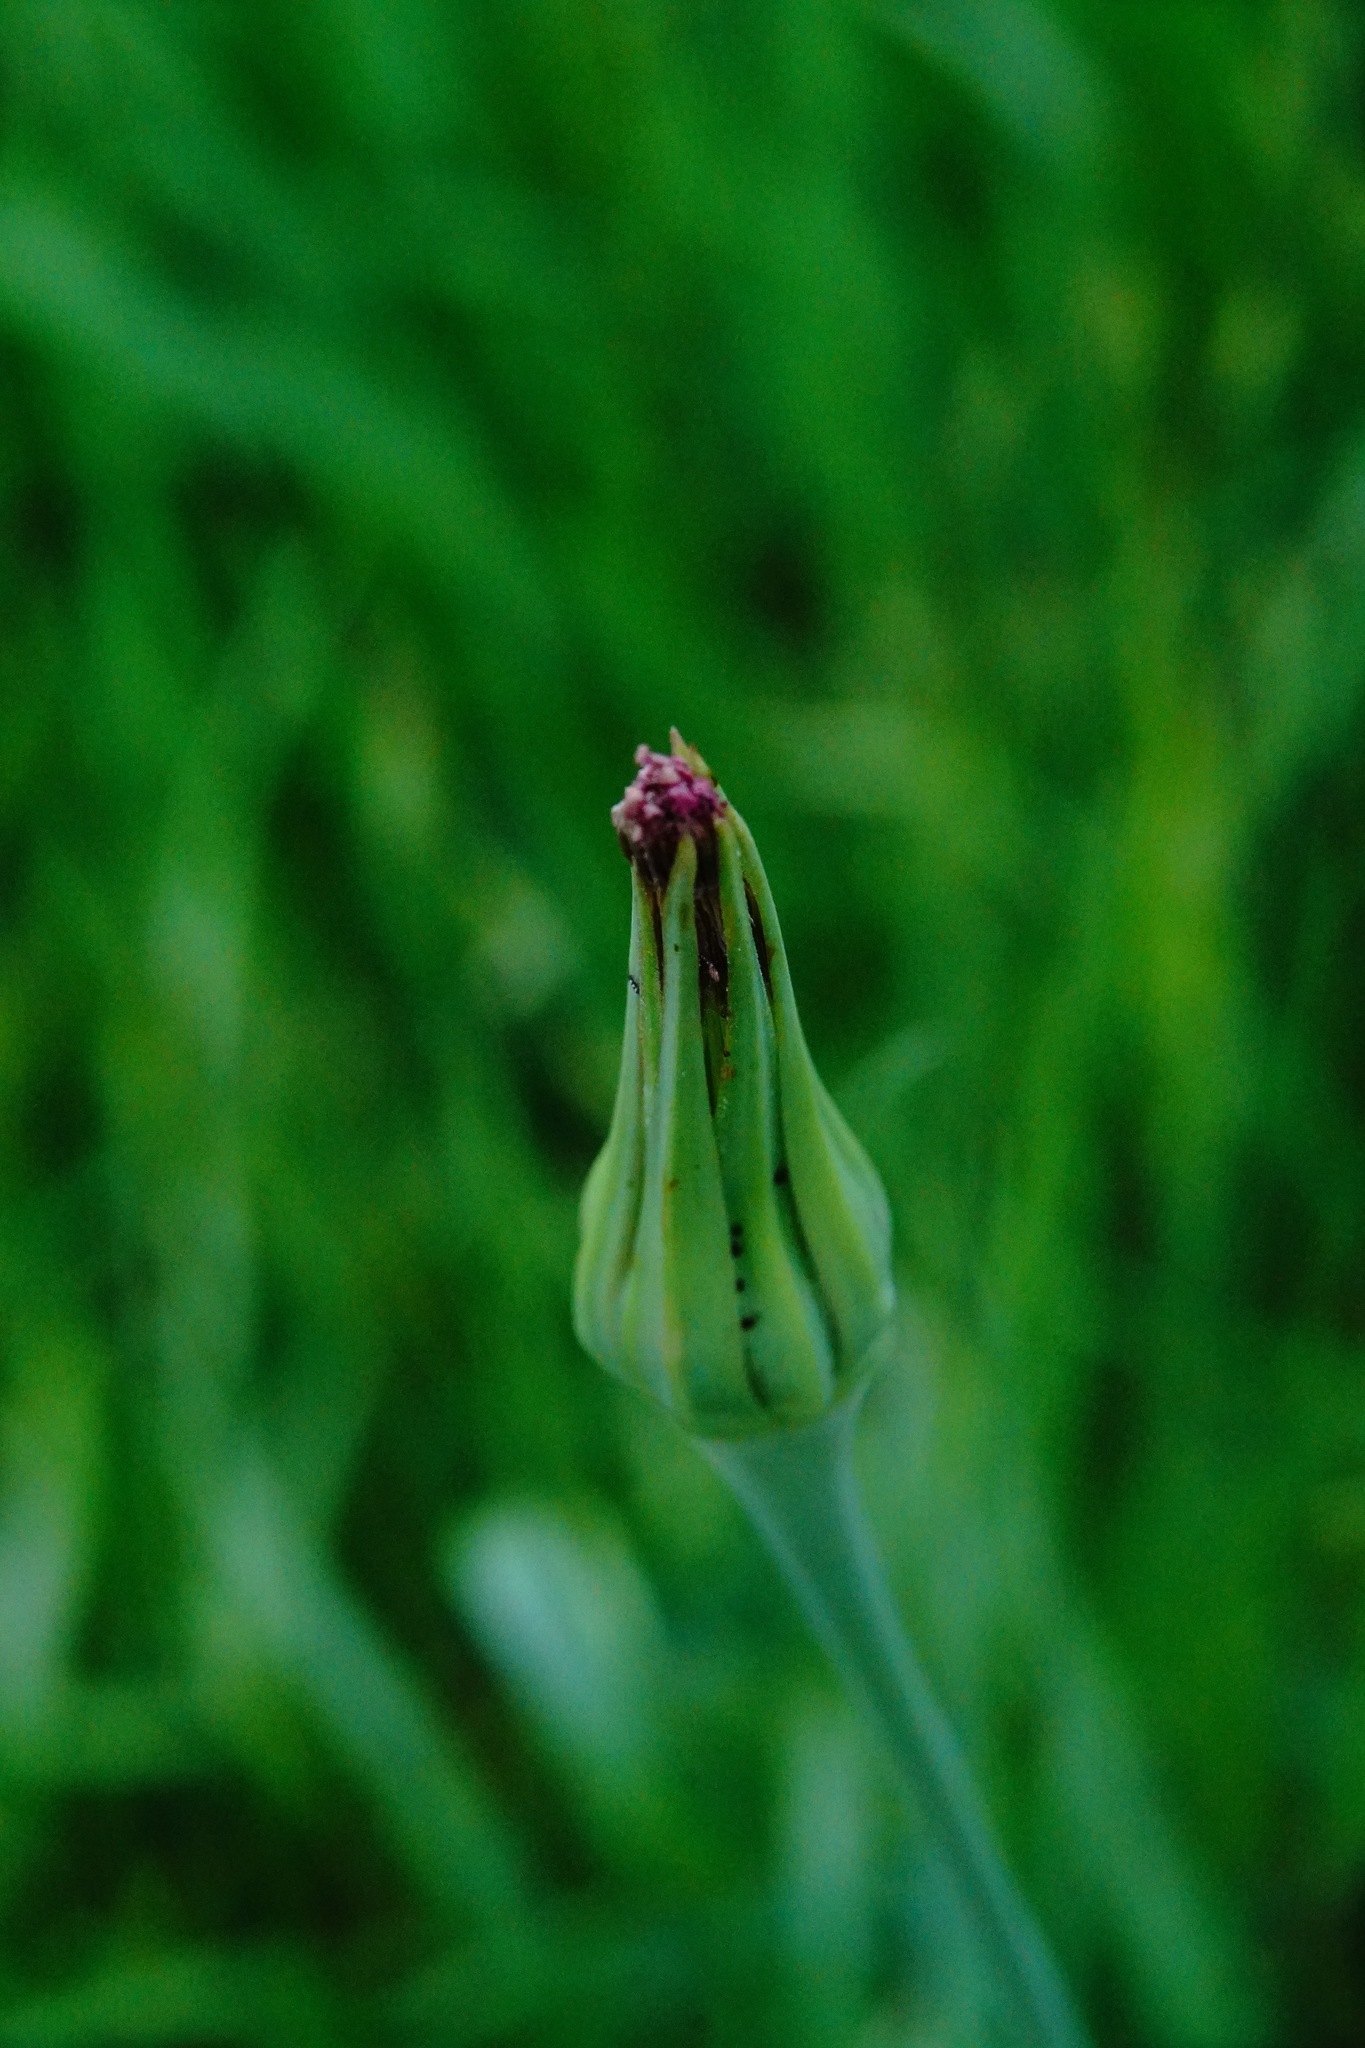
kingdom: Plantae
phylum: Tracheophyta
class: Magnoliopsida
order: Asterales
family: Asteraceae
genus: Tragopogon
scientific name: Tragopogon porrifolius
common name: Salsify
